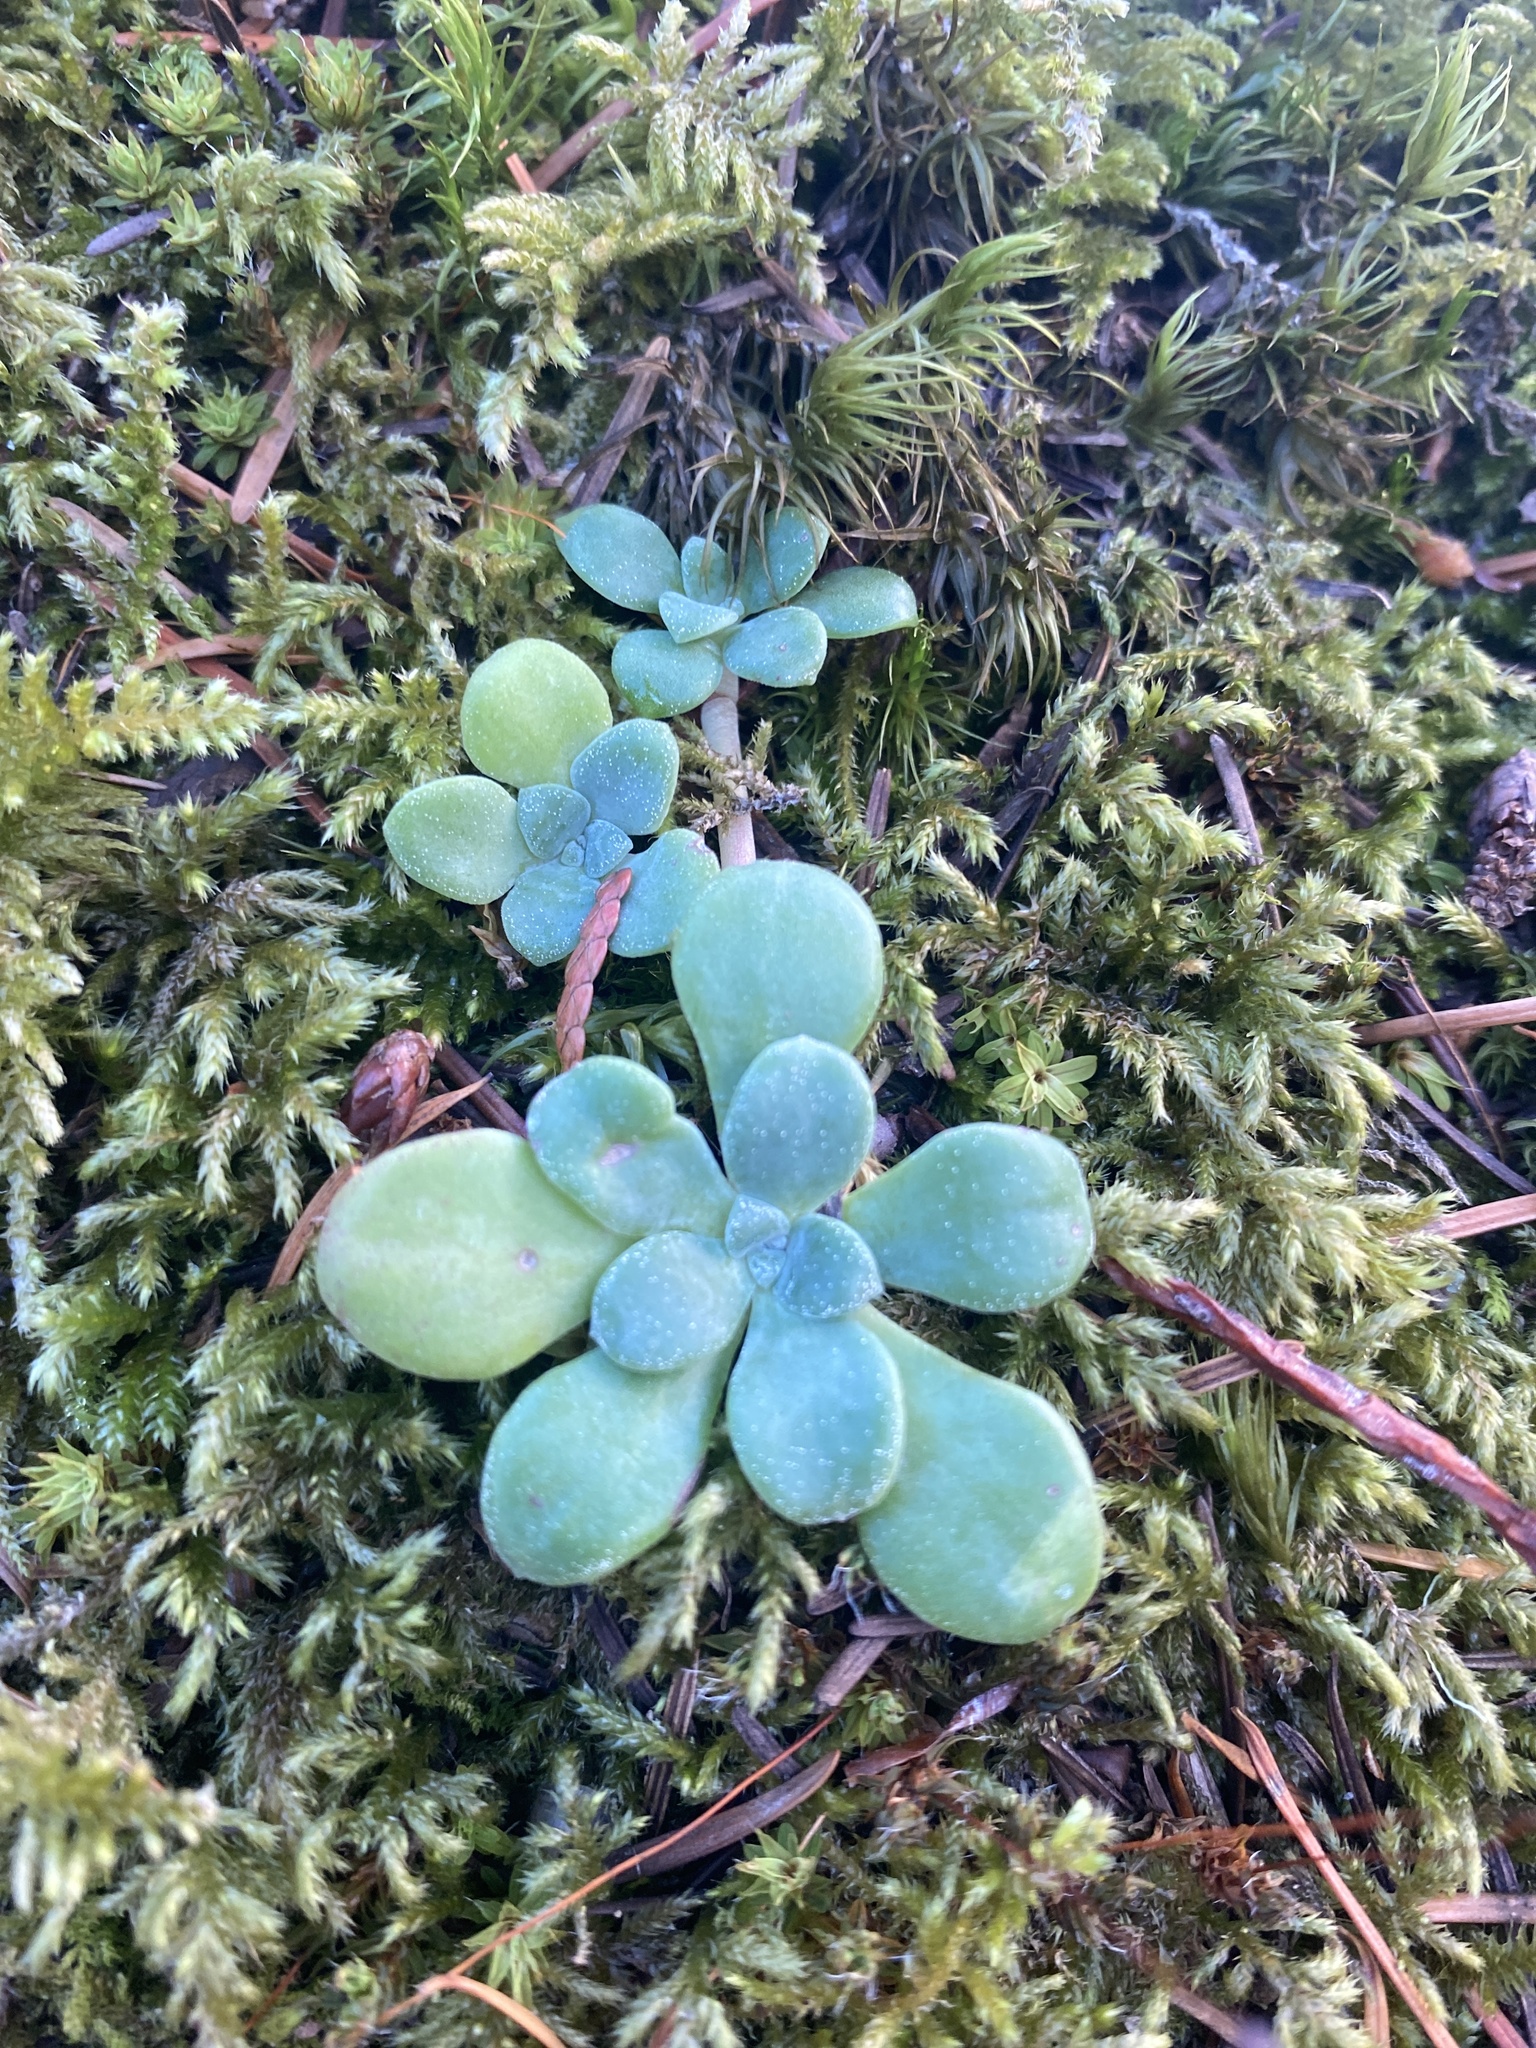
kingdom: Plantae
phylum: Tracheophyta
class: Magnoliopsida
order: Saxifragales
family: Crassulaceae
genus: Sedum
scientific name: Sedum spathulifolium
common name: Colorado stonecrop
